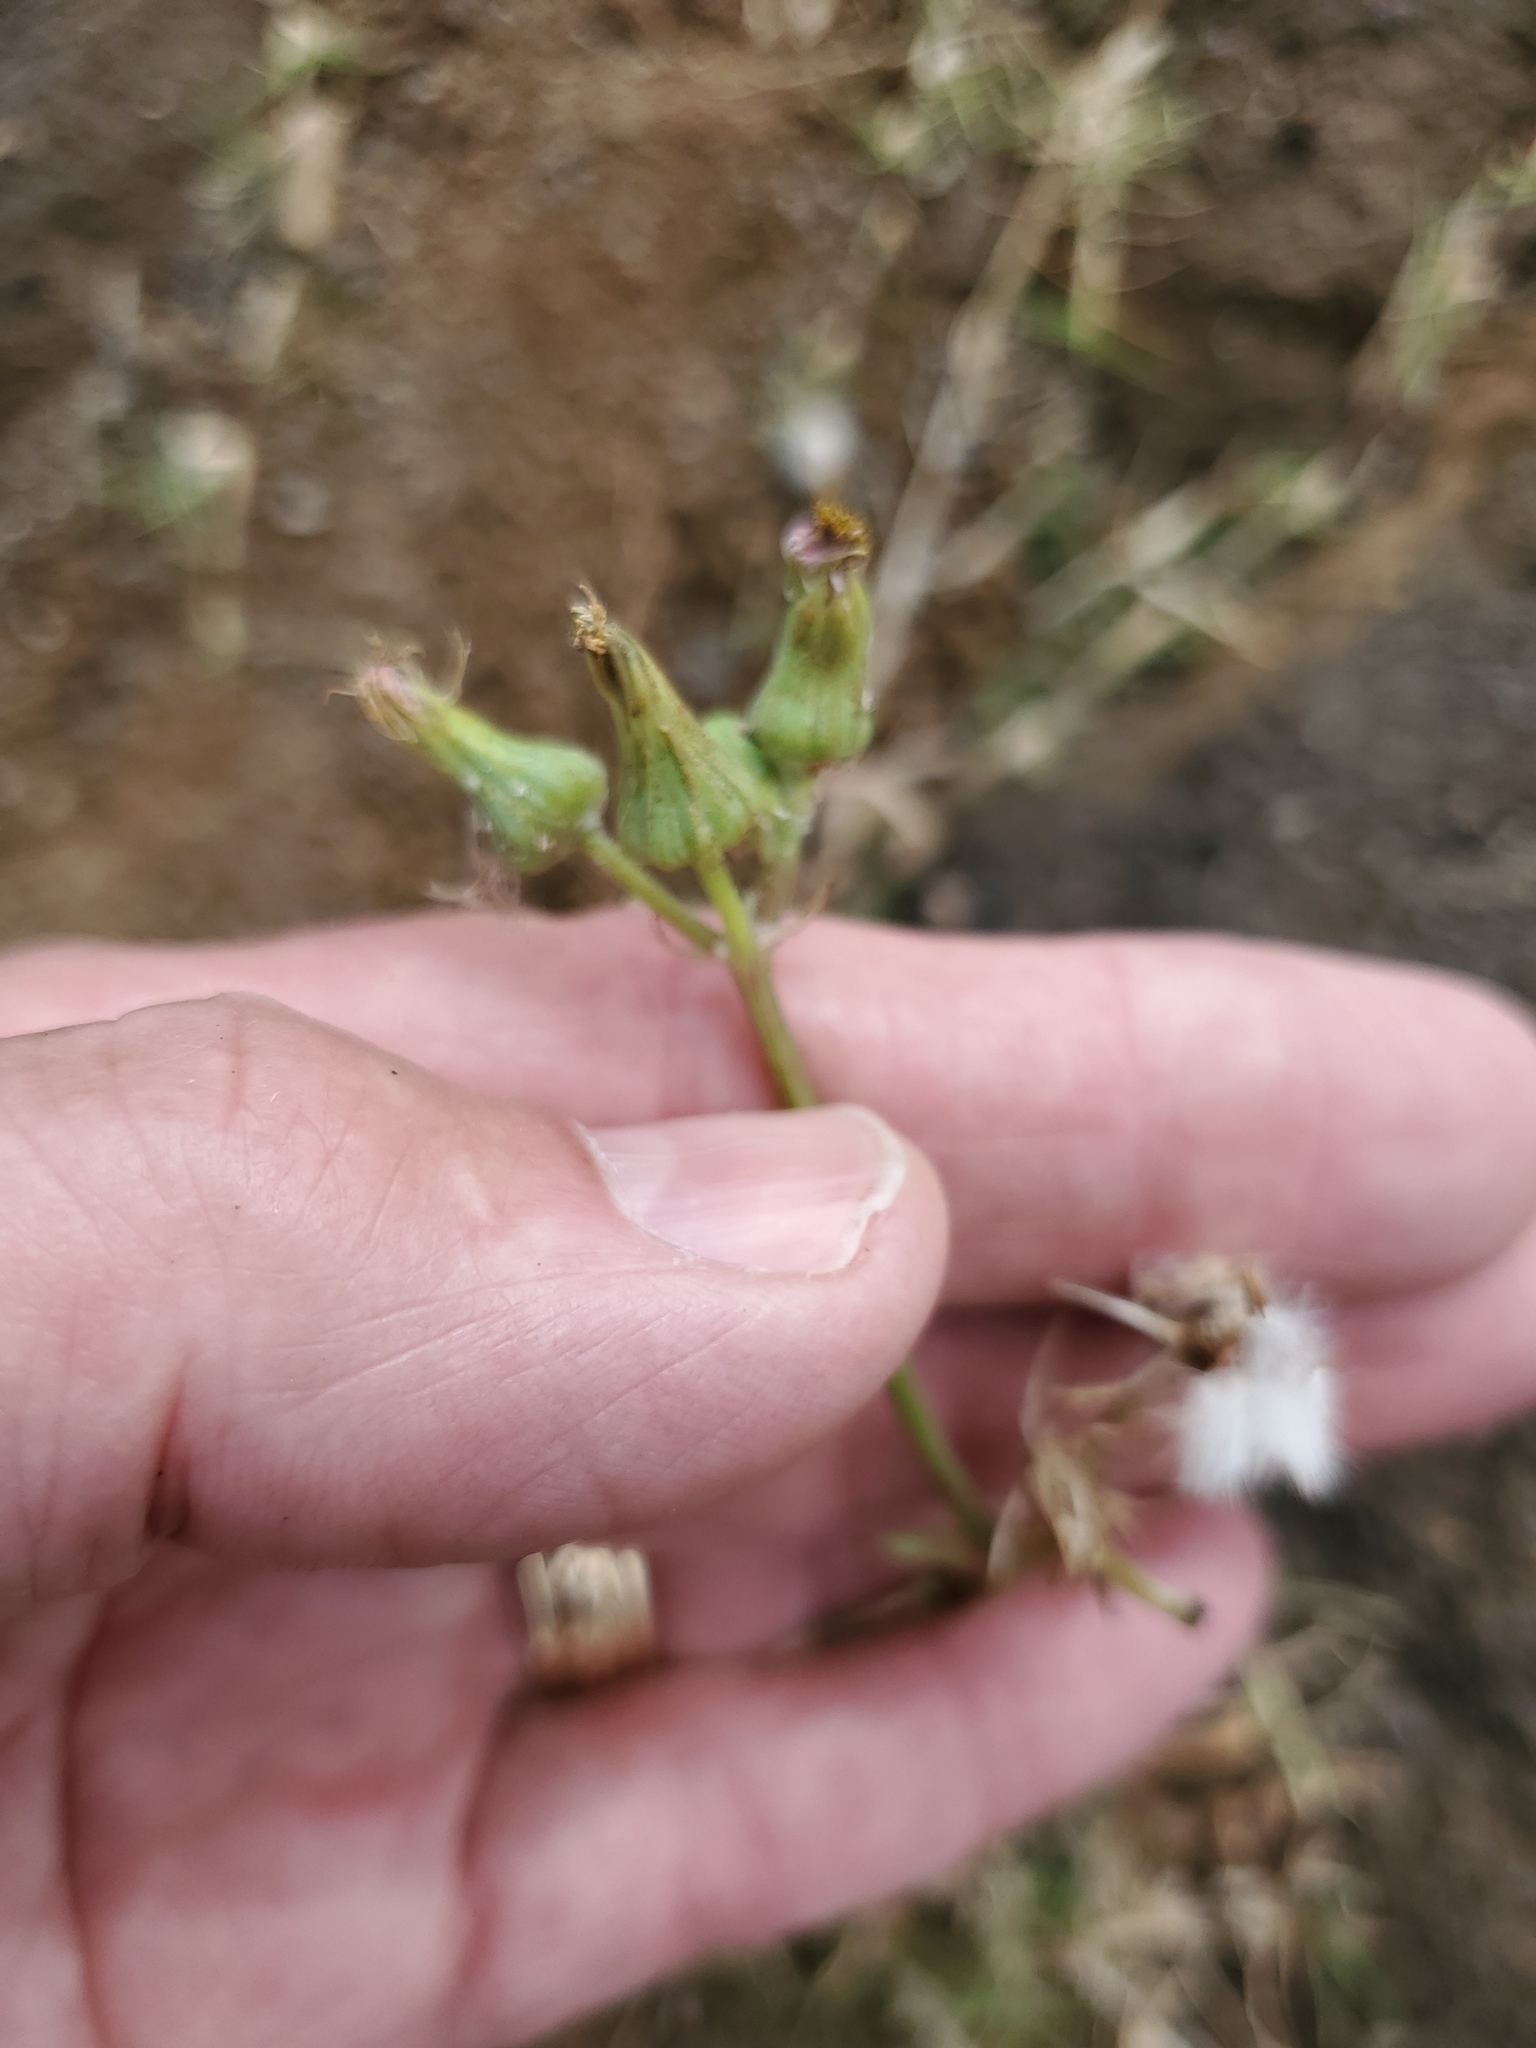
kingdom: Plantae
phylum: Tracheophyta
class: Magnoliopsida
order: Asterales
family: Asteraceae
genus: Sonchus
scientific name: Sonchus oleraceus
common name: Common sowthistle
